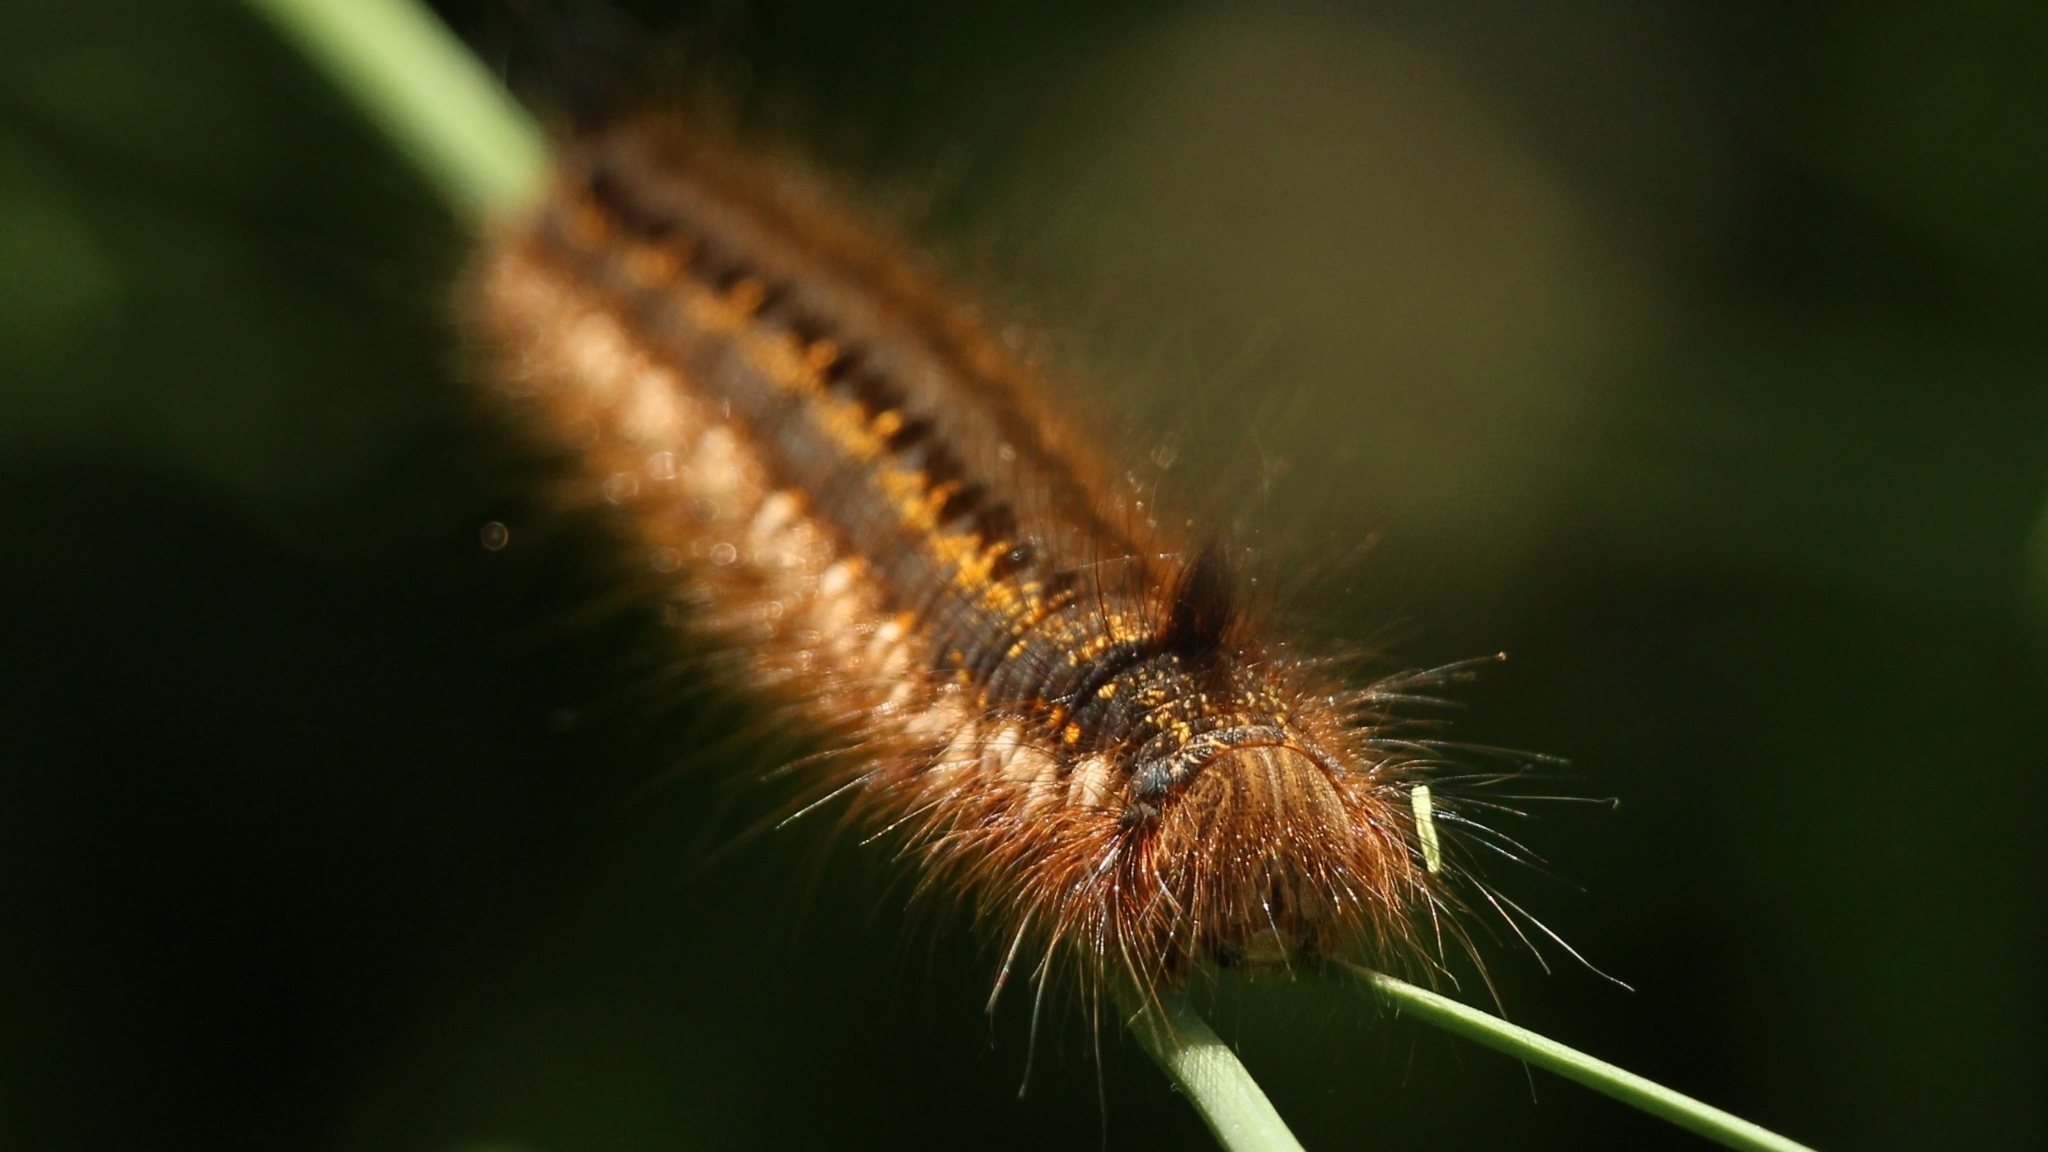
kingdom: Animalia
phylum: Arthropoda
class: Insecta
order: Lepidoptera
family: Lasiocampidae
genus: Euthrix
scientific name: Euthrix potatoria
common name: Drinker
